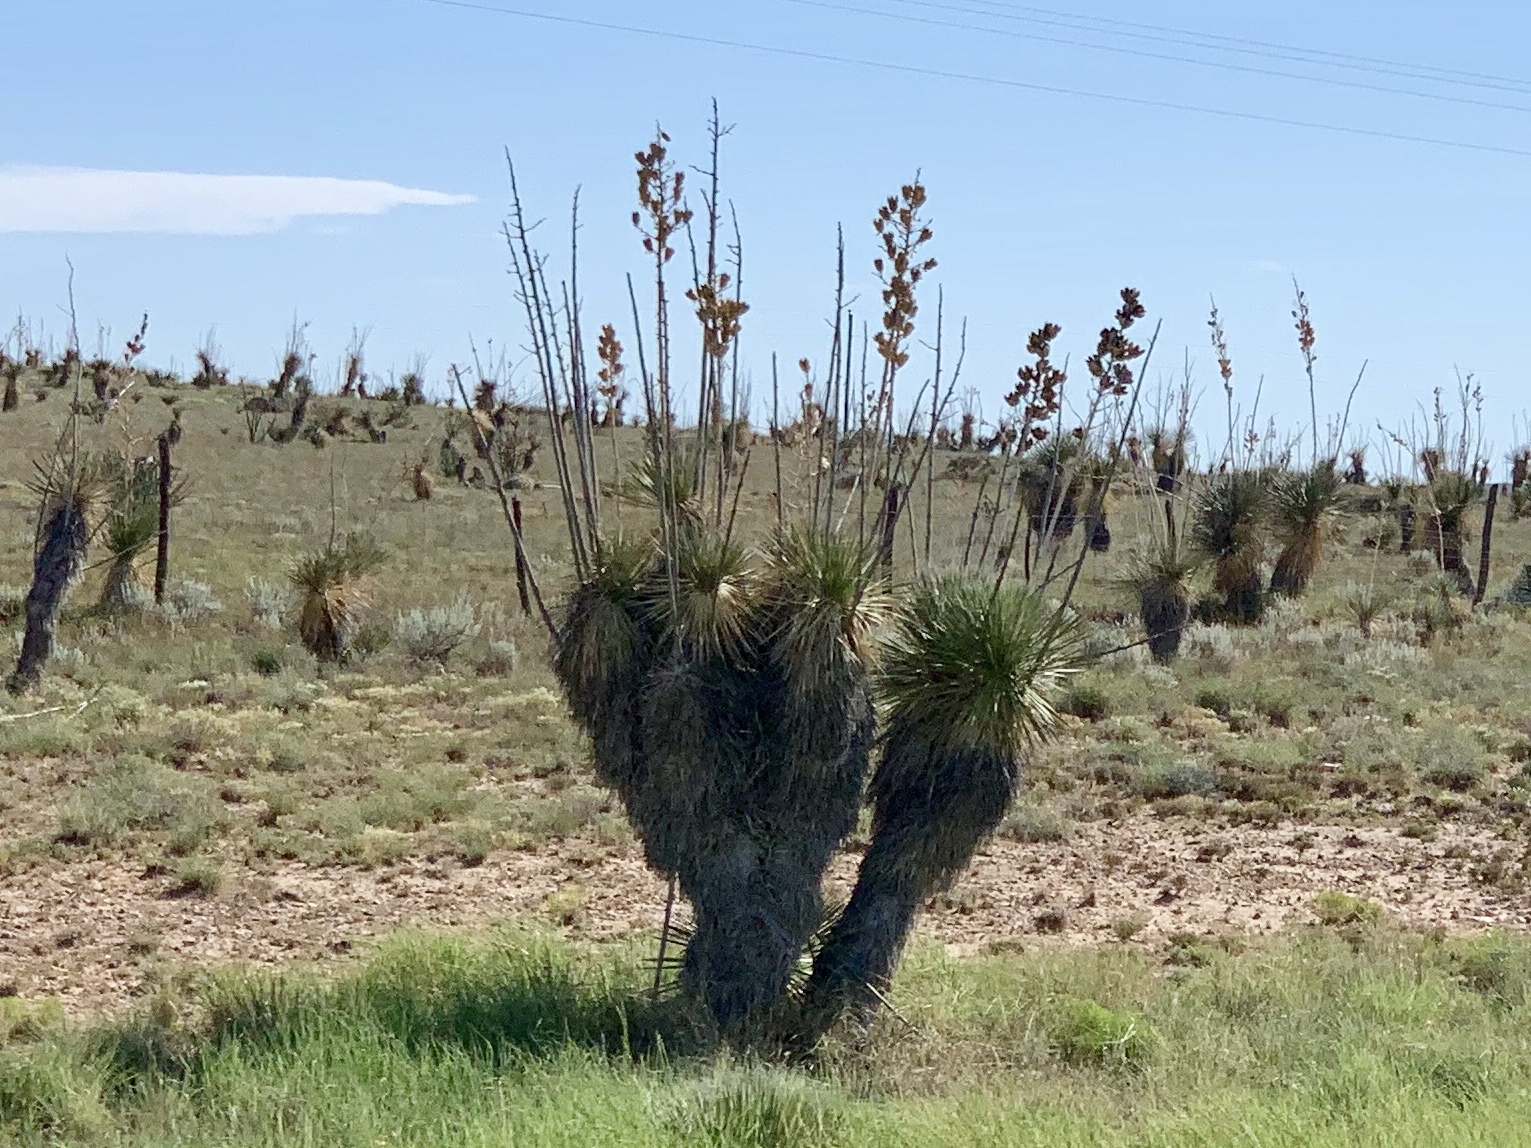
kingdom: Plantae
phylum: Tracheophyta
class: Liliopsida
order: Asparagales
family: Asparagaceae
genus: Yucca
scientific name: Yucca elata
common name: Palmella
